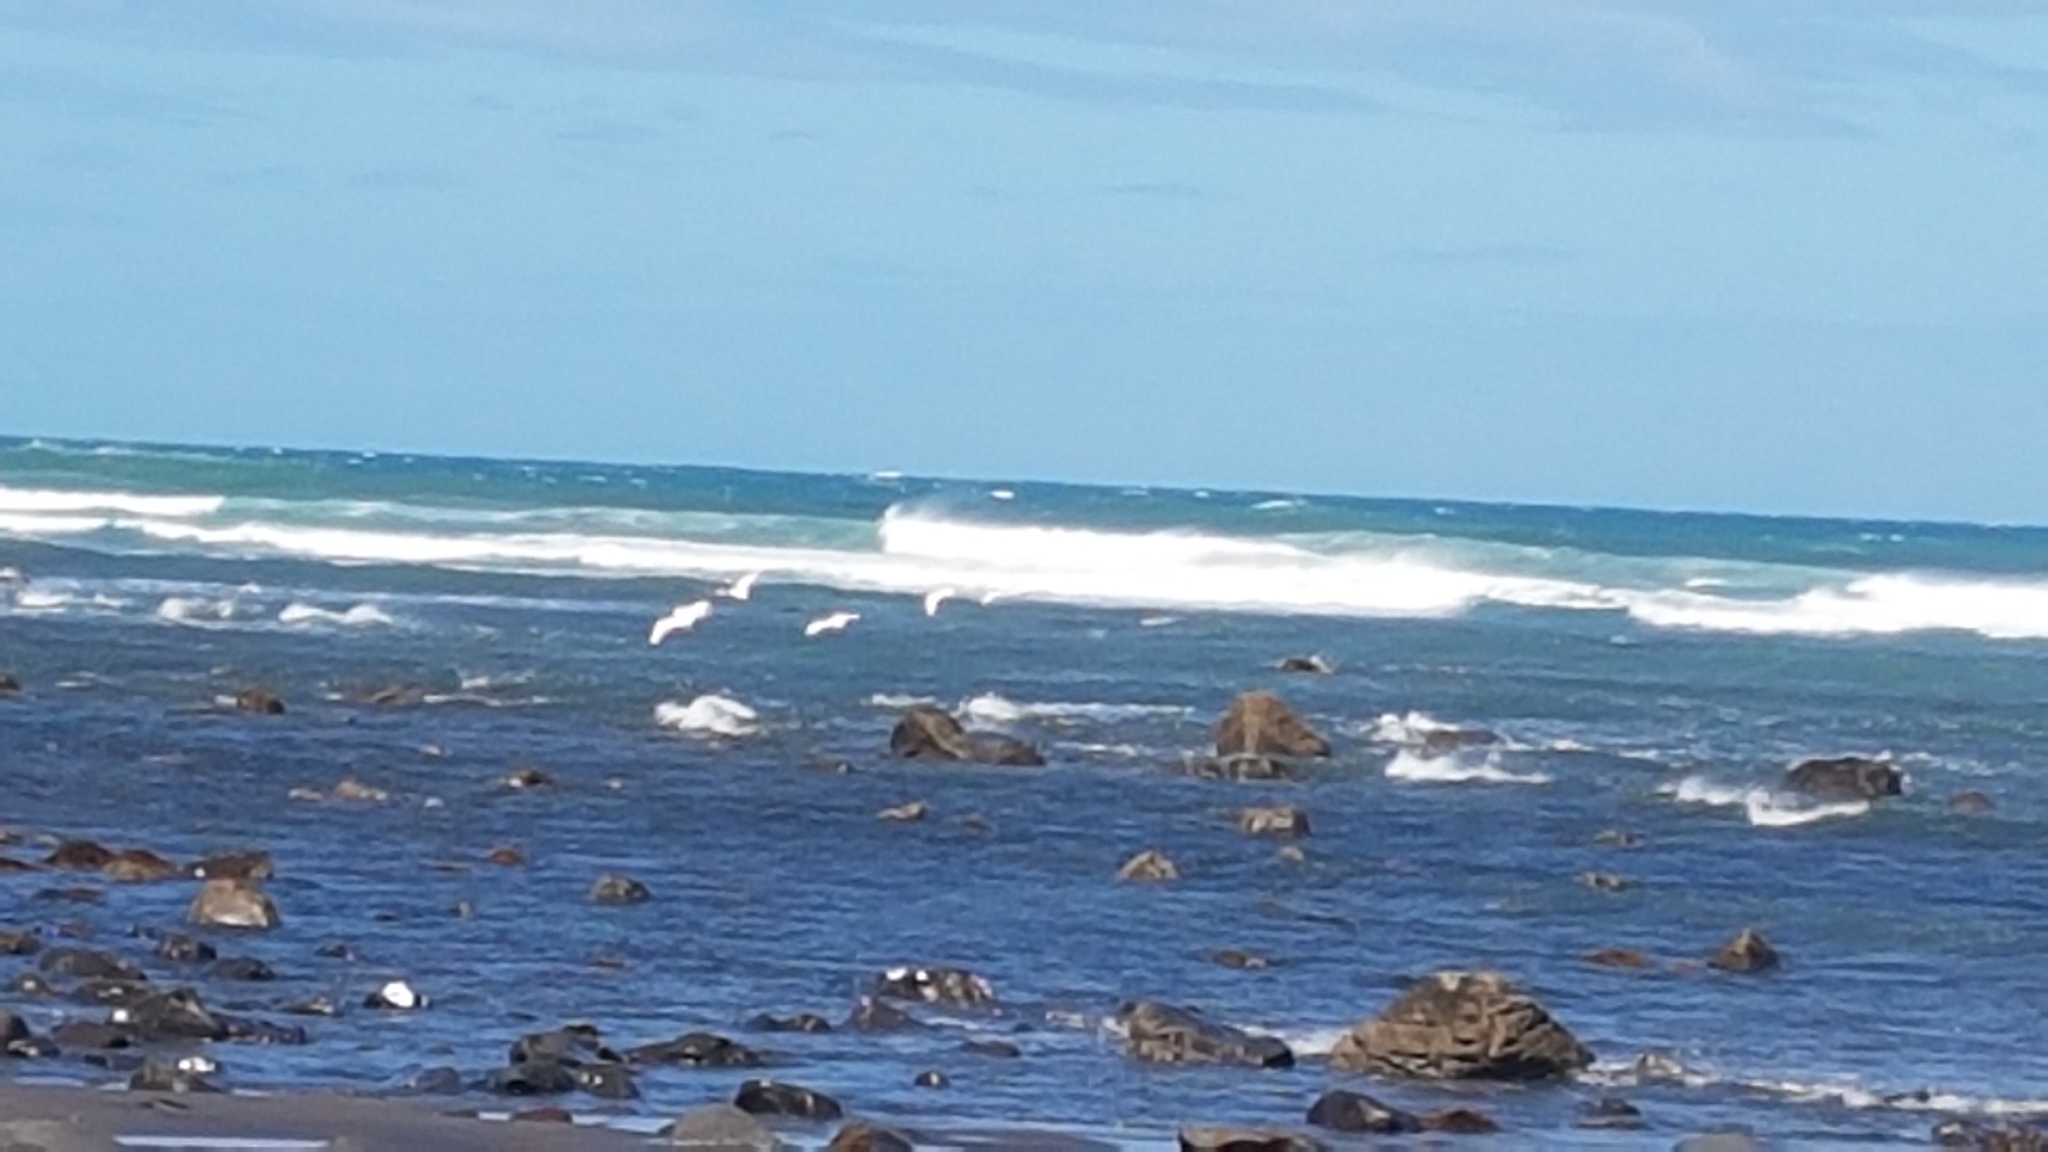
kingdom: Animalia
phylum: Chordata
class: Aves
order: Pelecaniformes
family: Threskiornithidae
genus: Platalea
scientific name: Platalea regia
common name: Royal spoonbill
